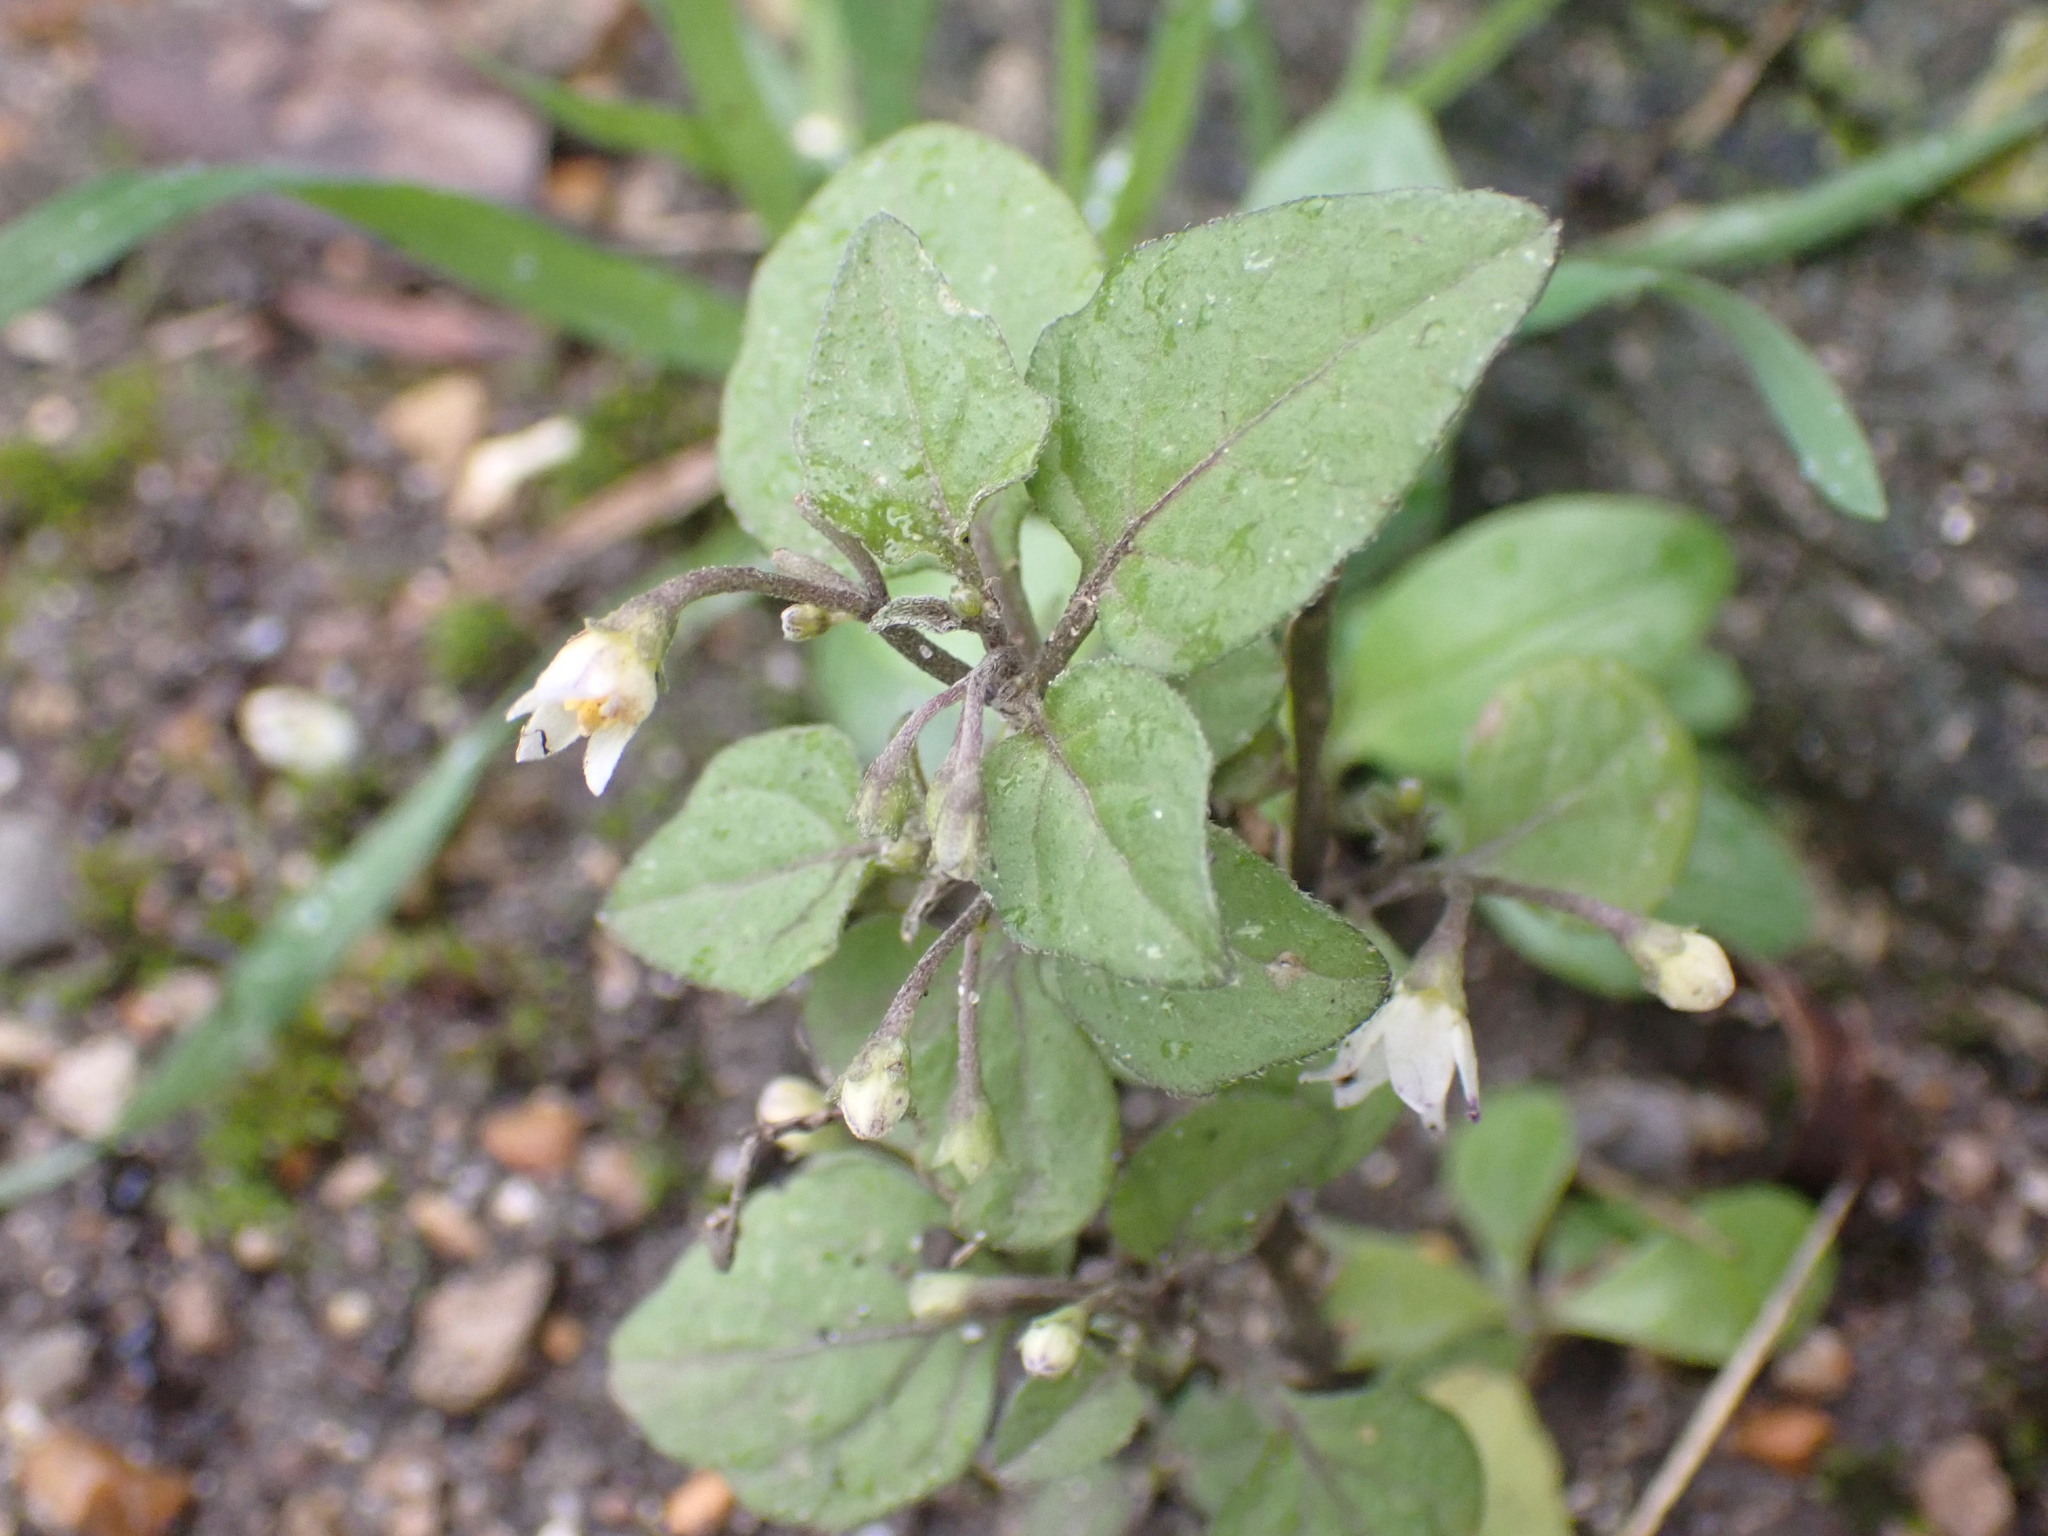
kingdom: Plantae
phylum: Tracheophyta
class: Magnoliopsida
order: Solanales
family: Solanaceae
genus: Solanum
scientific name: Solanum nigrum
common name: Black nightshade
